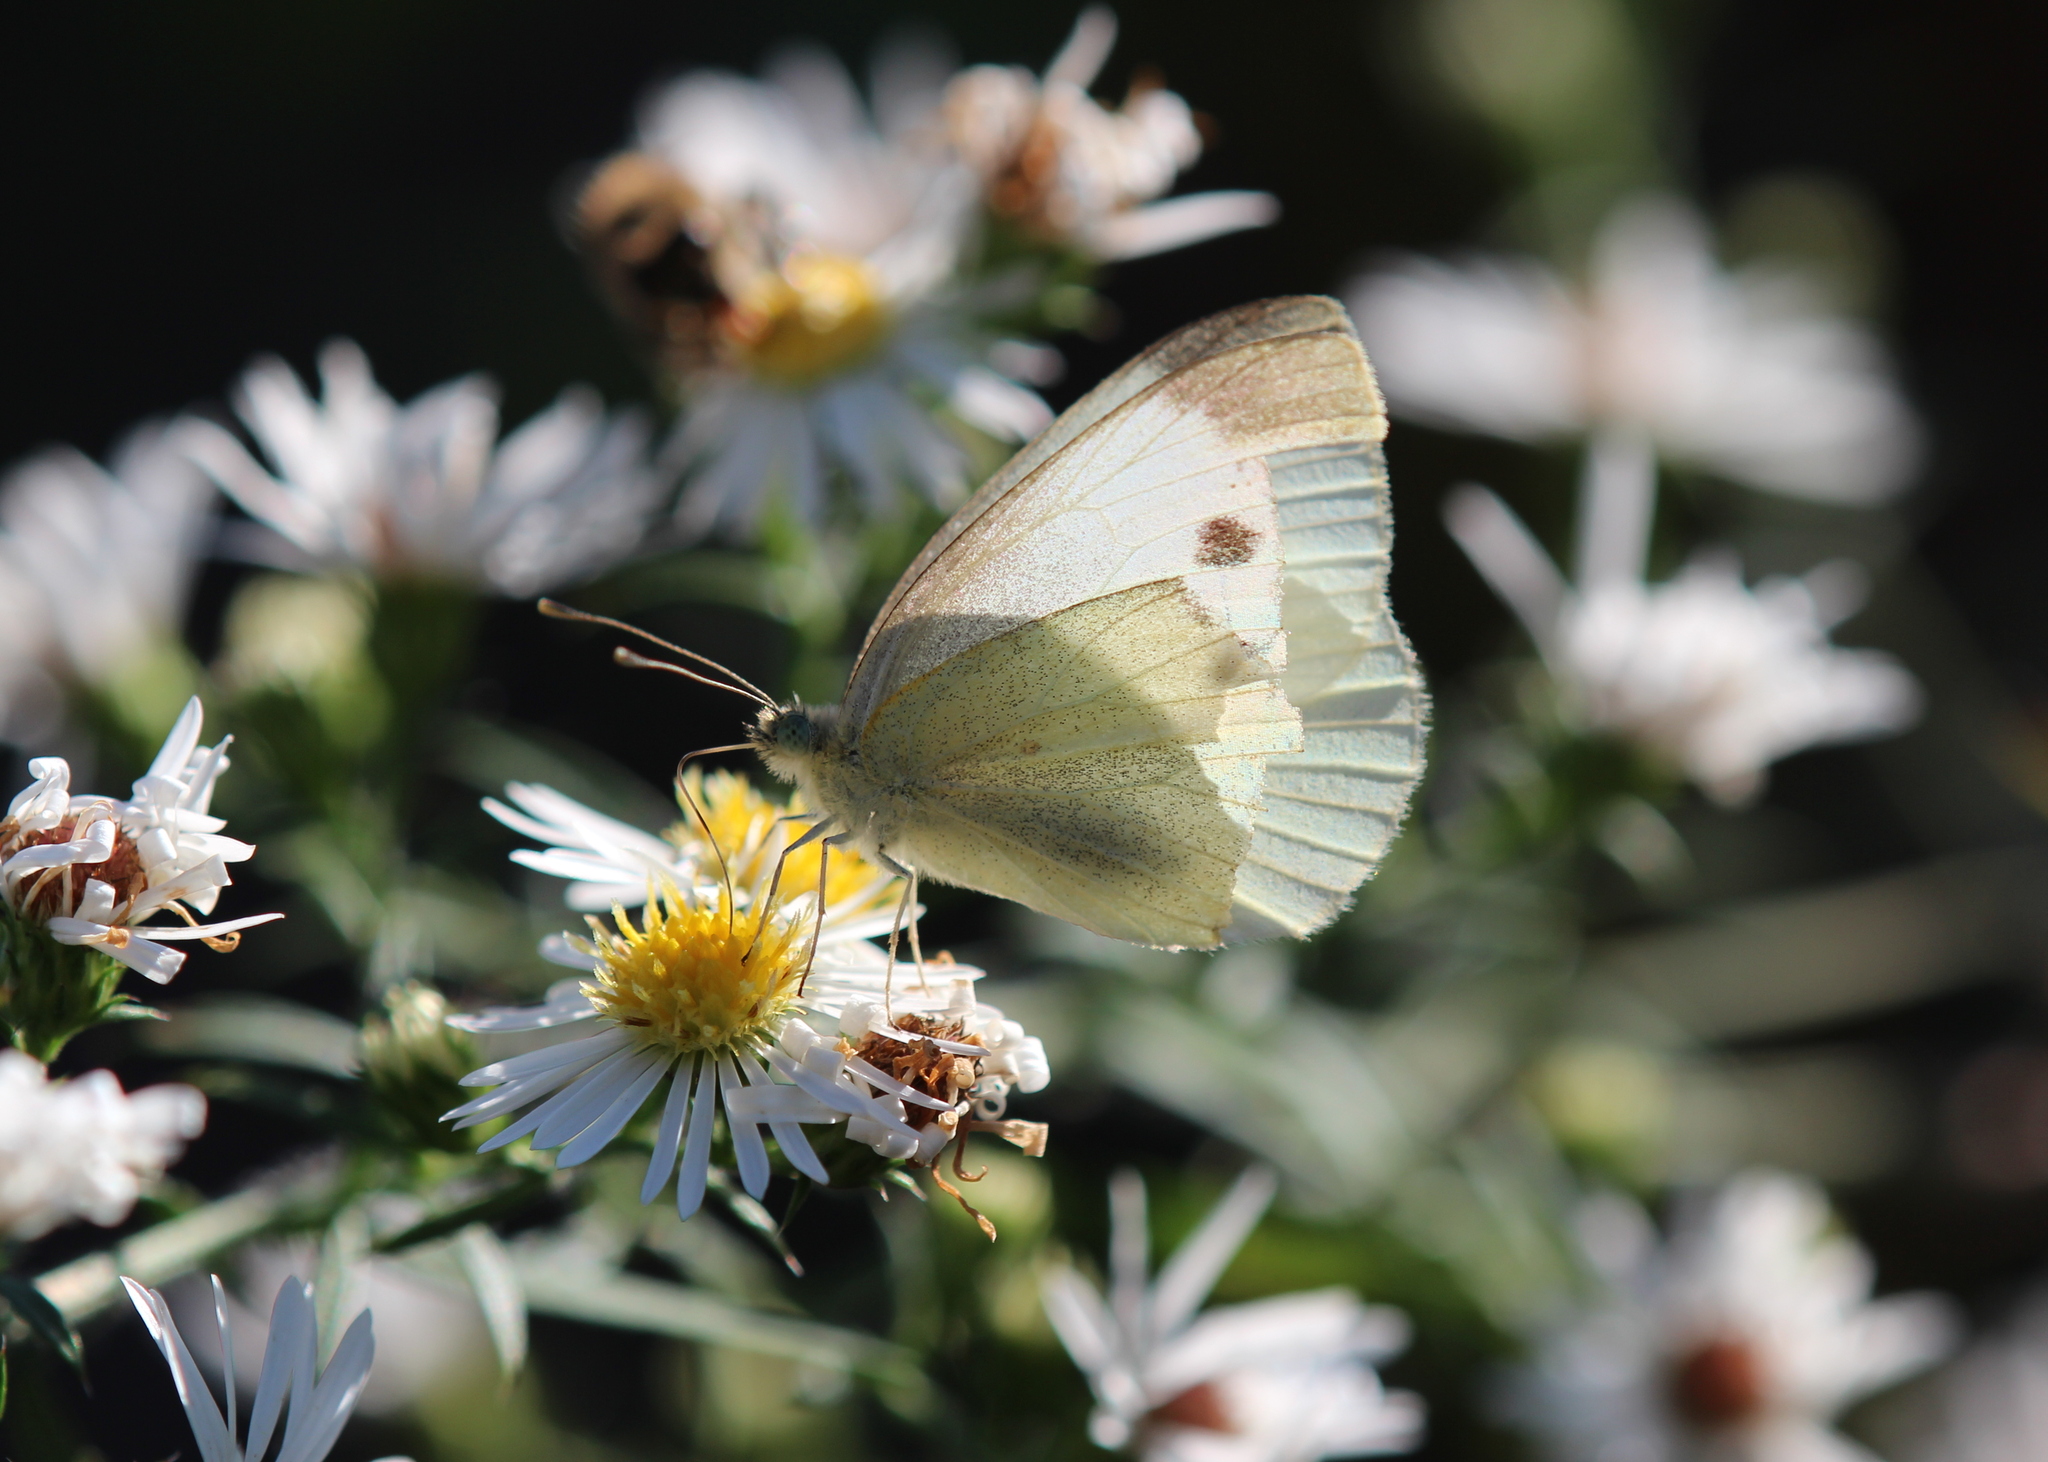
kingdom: Animalia
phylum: Arthropoda
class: Insecta
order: Lepidoptera
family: Pieridae
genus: Pieris
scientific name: Pieris rapae
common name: Small white
